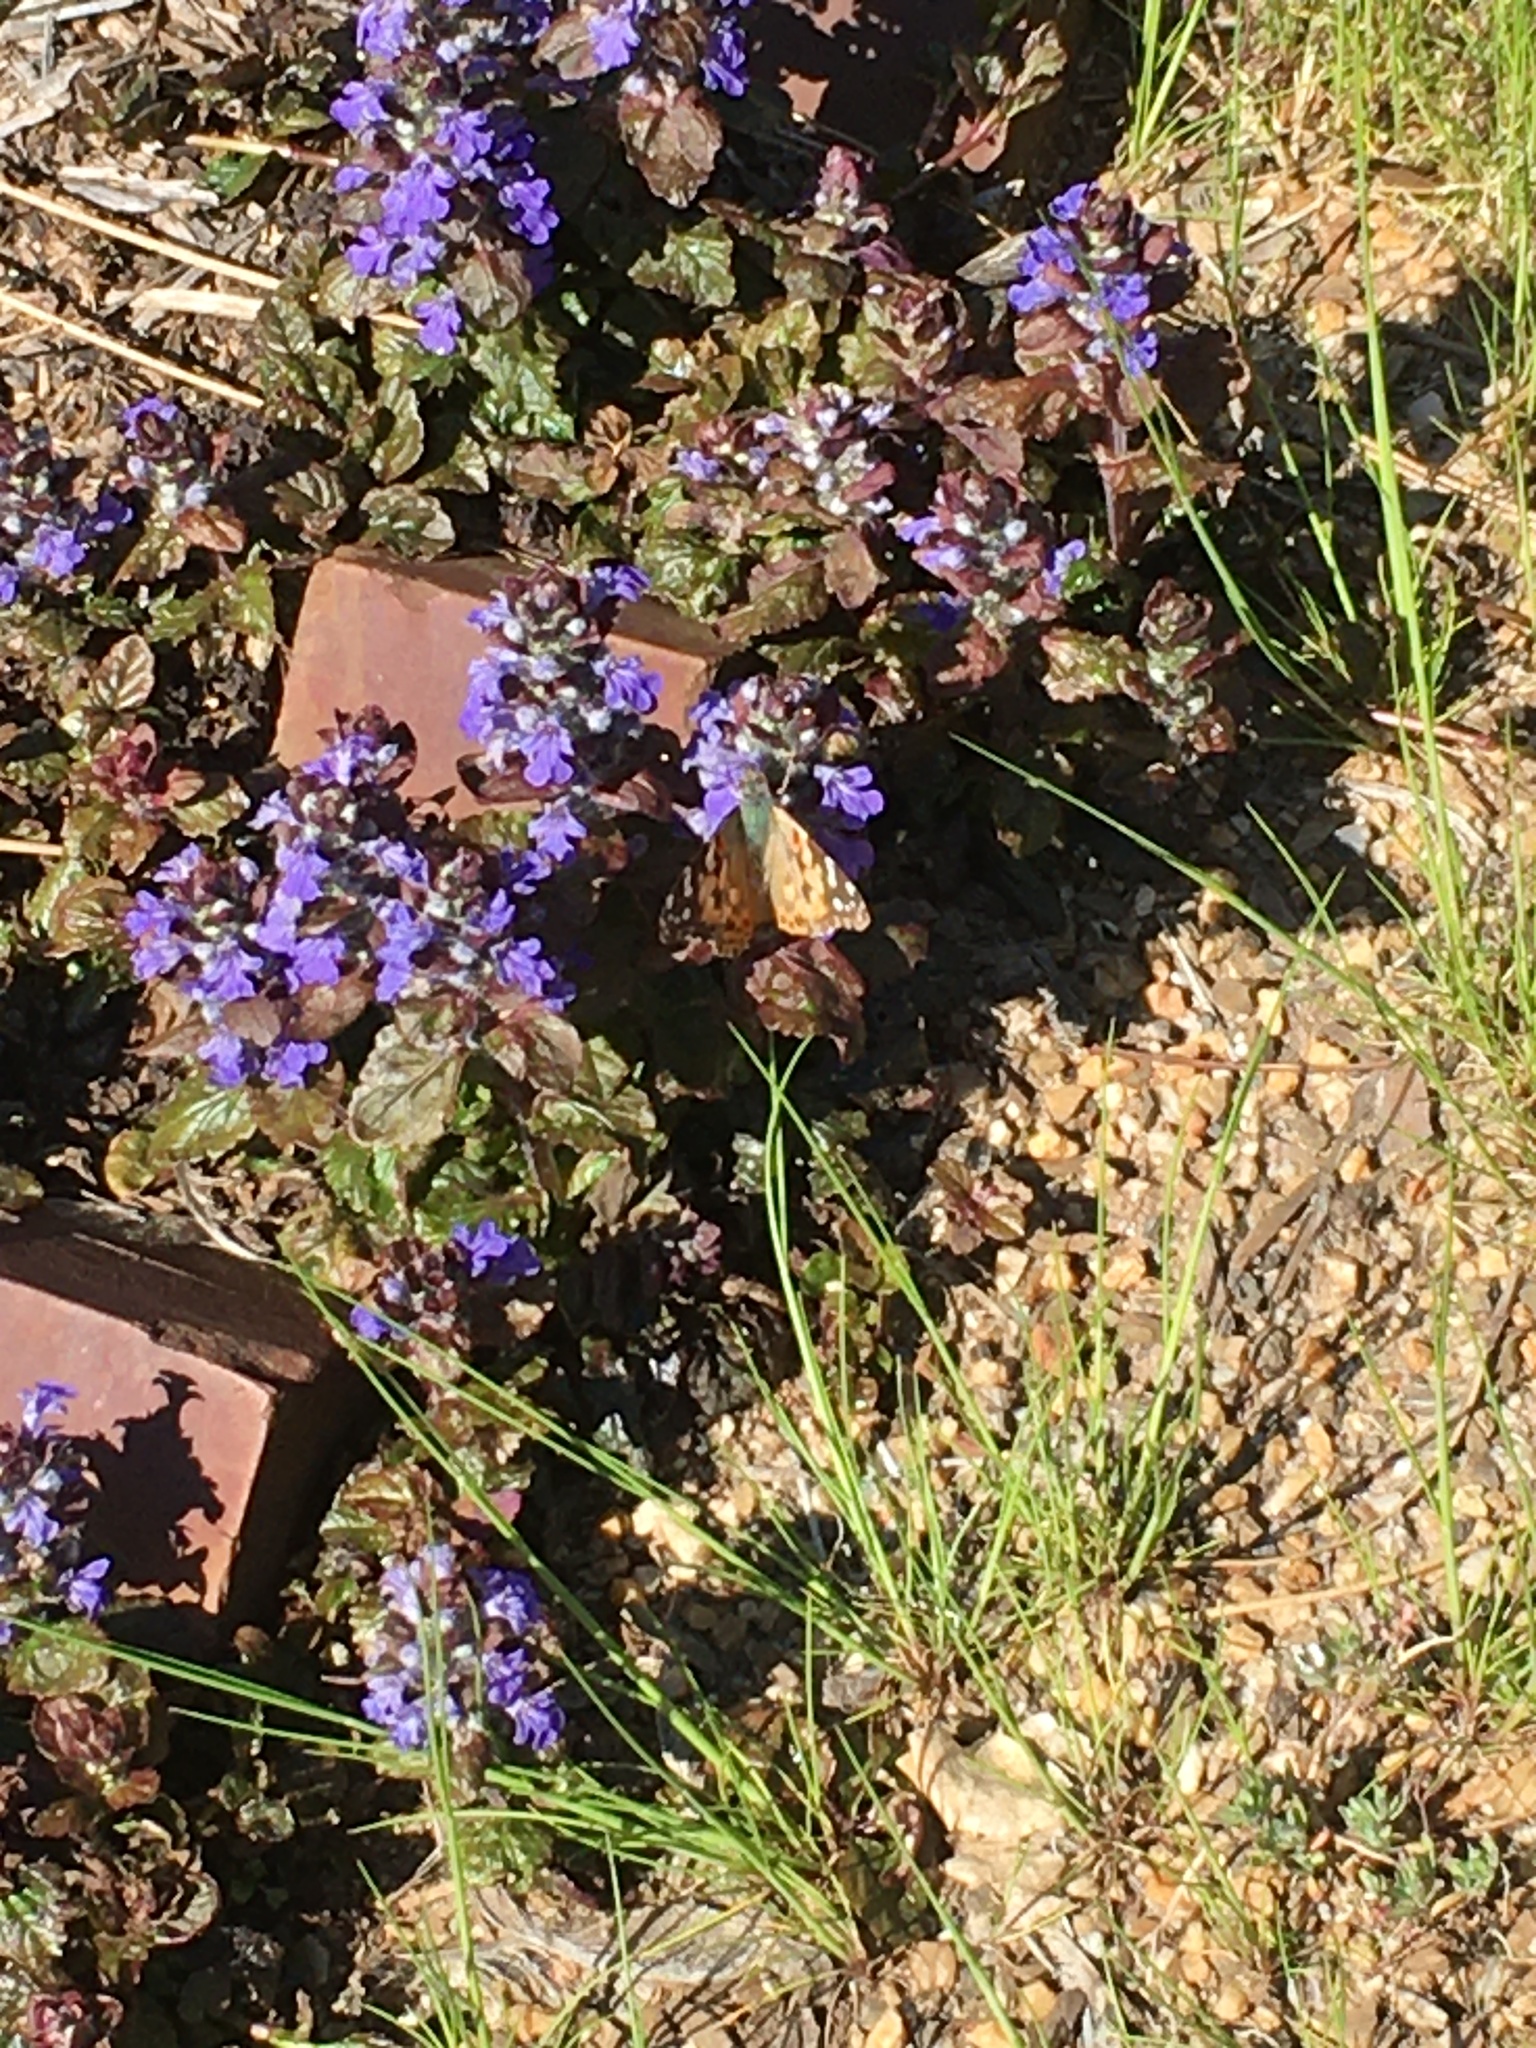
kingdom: Animalia
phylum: Arthropoda
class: Insecta
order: Lepidoptera
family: Nymphalidae
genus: Vanessa
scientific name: Vanessa cardui
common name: Painted lady
